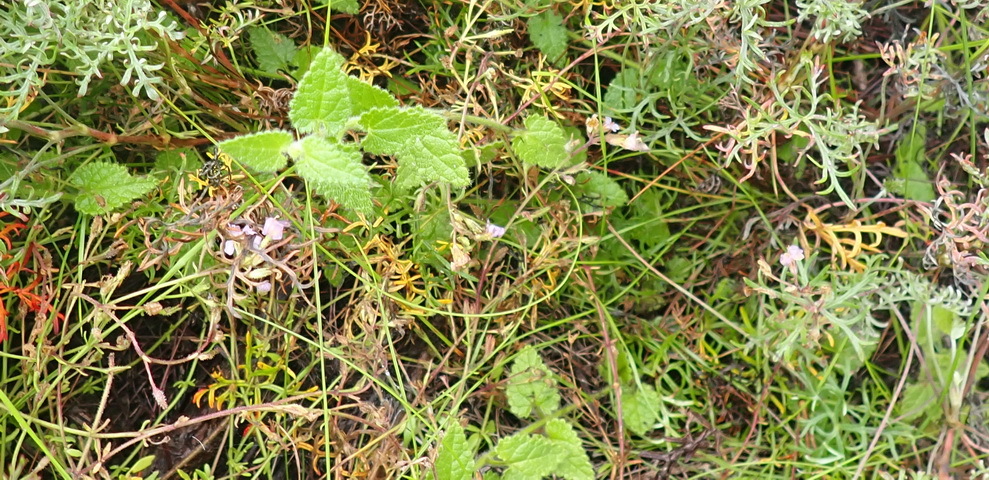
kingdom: Plantae
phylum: Tracheophyta
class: Magnoliopsida
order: Lamiales
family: Lamiaceae
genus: Stachys
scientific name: Stachys aethiopica
